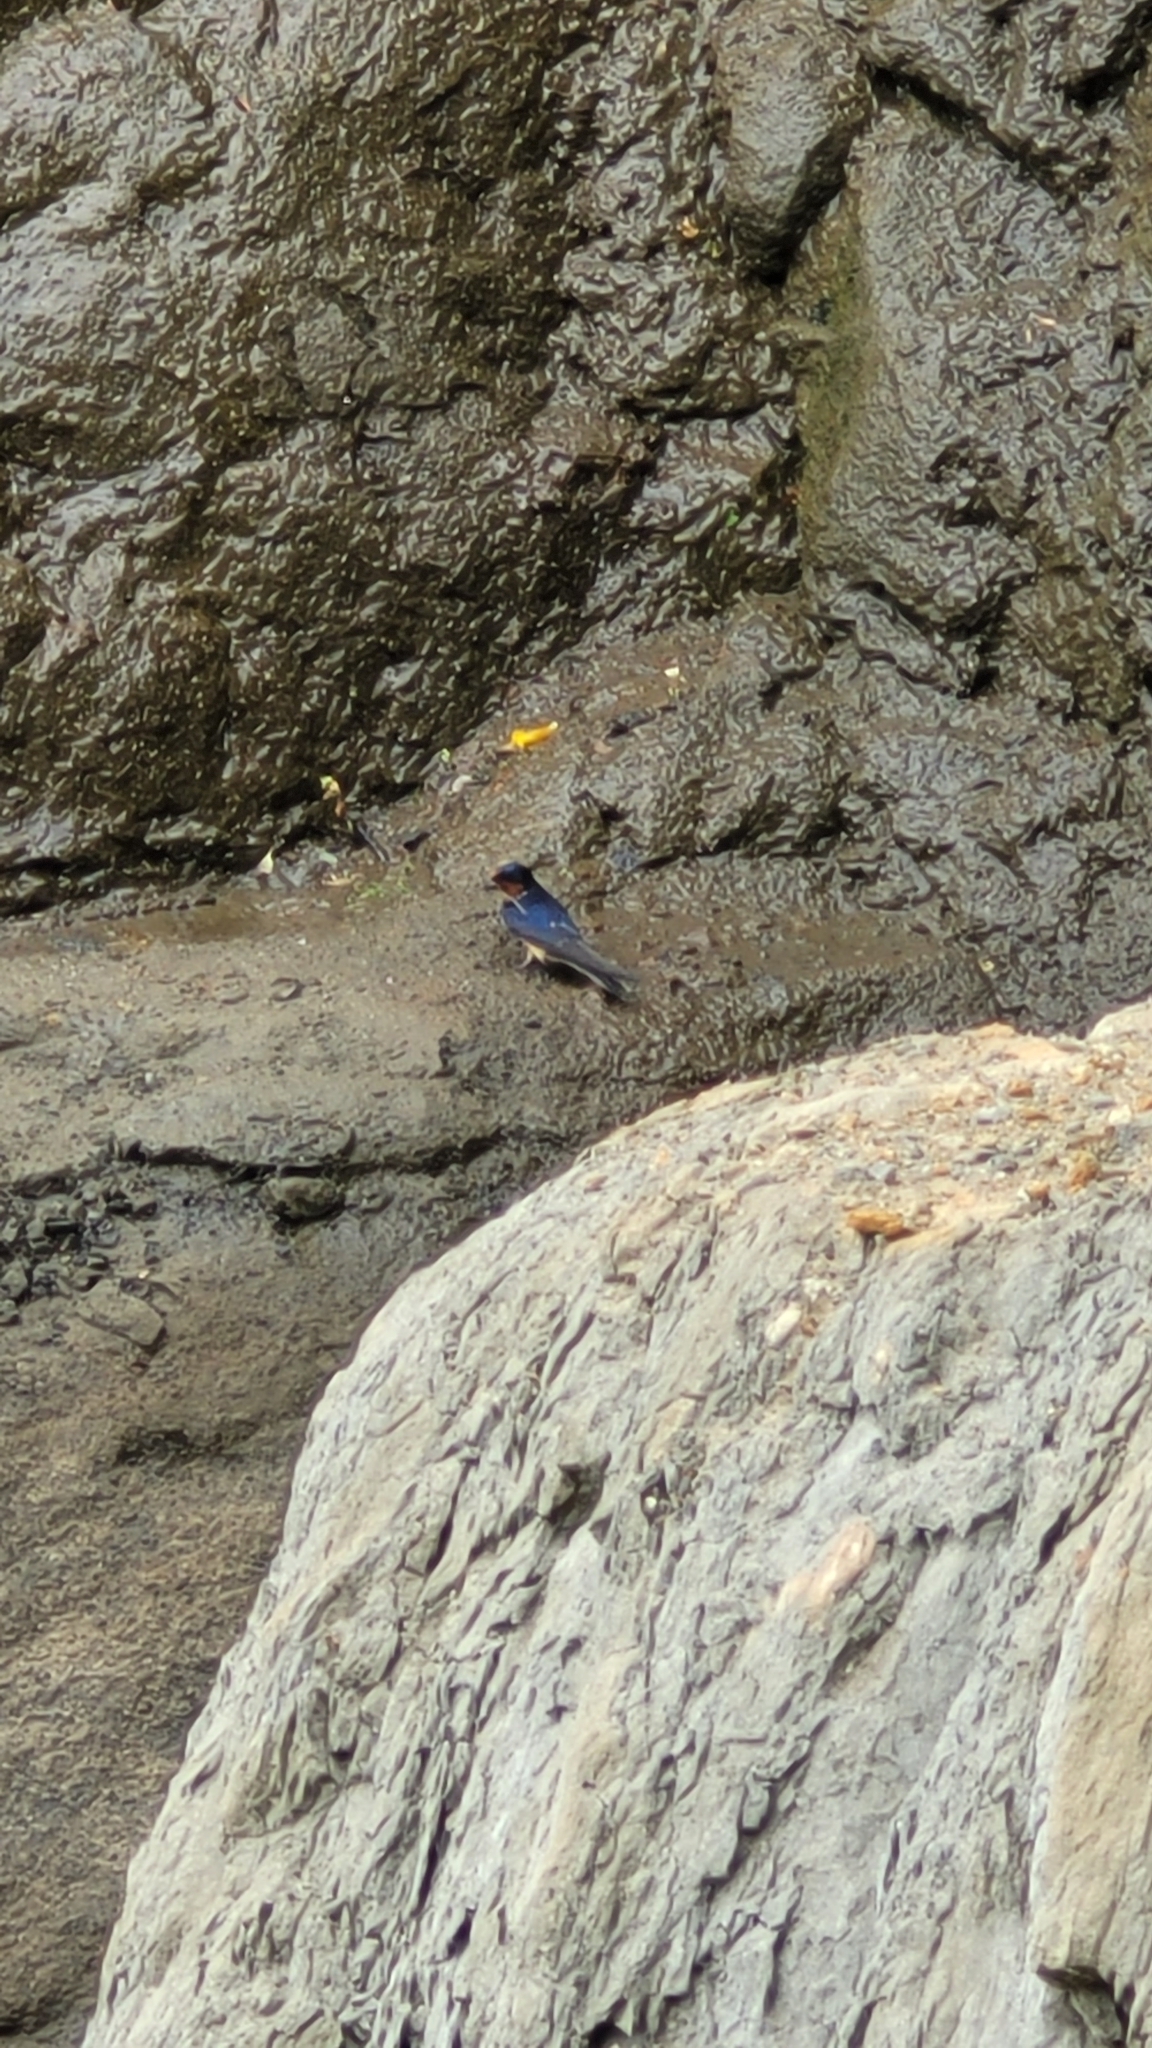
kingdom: Animalia
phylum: Chordata
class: Aves
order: Passeriformes
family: Hirundinidae
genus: Hirundo
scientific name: Hirundo rustica
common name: Barn swallow
